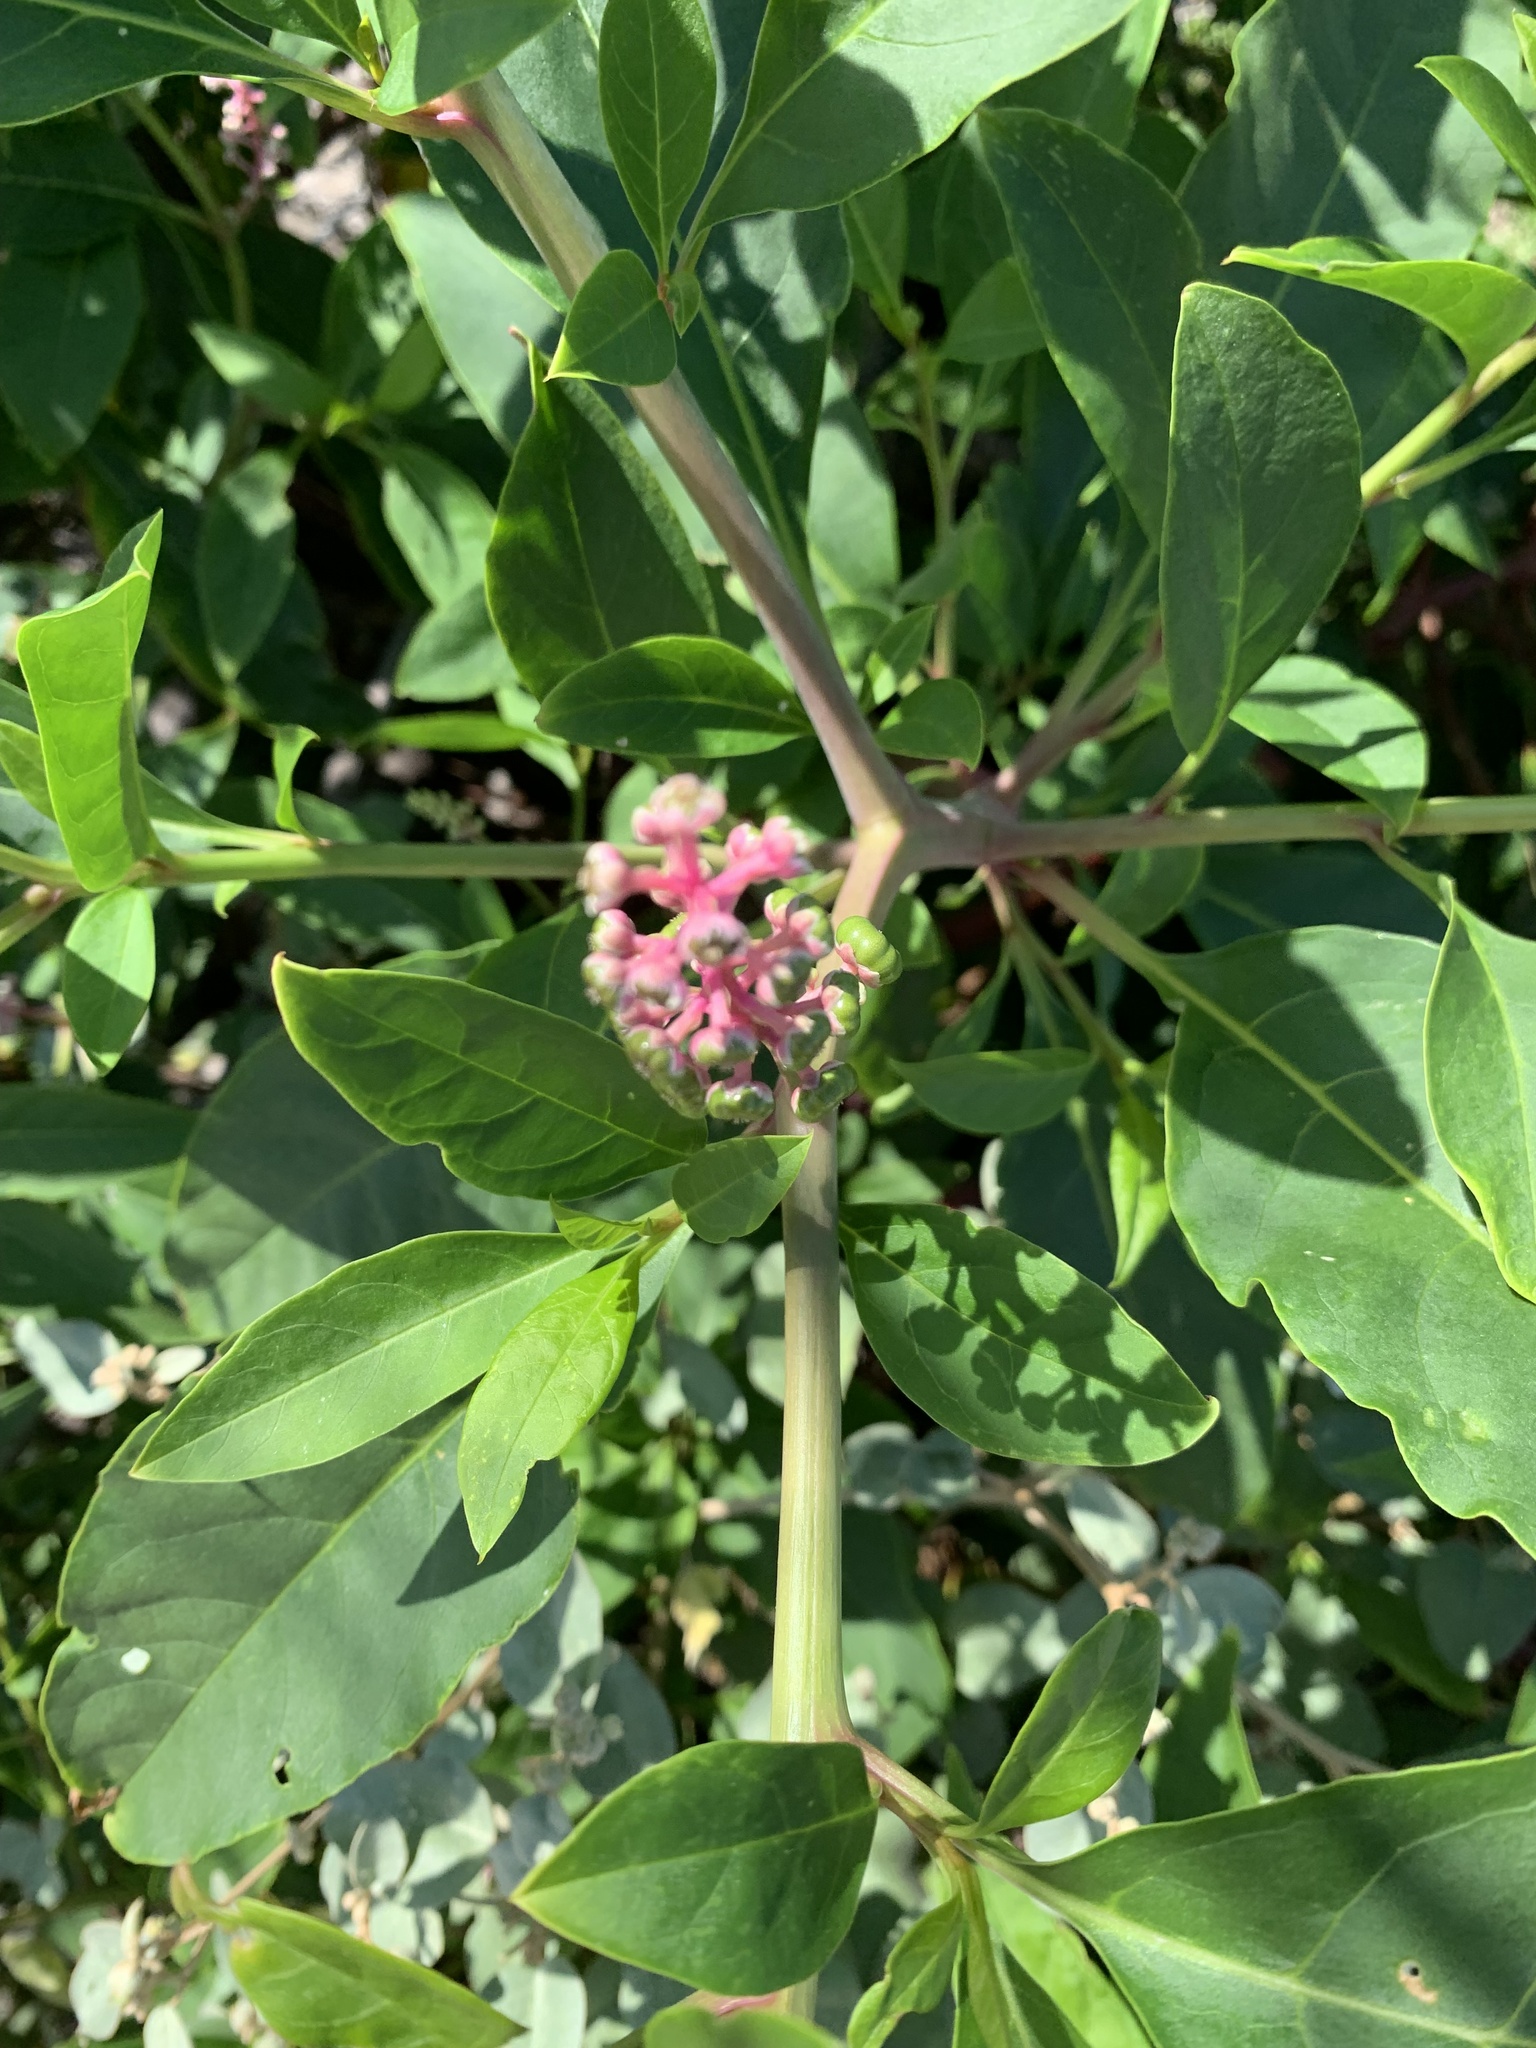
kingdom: Plantae
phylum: Tracheophyta
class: Magnoliopsida
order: Caryophyllales
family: Phytolaccaceae
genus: Phytolacca
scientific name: Phytolacca americana
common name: American pokeweed
